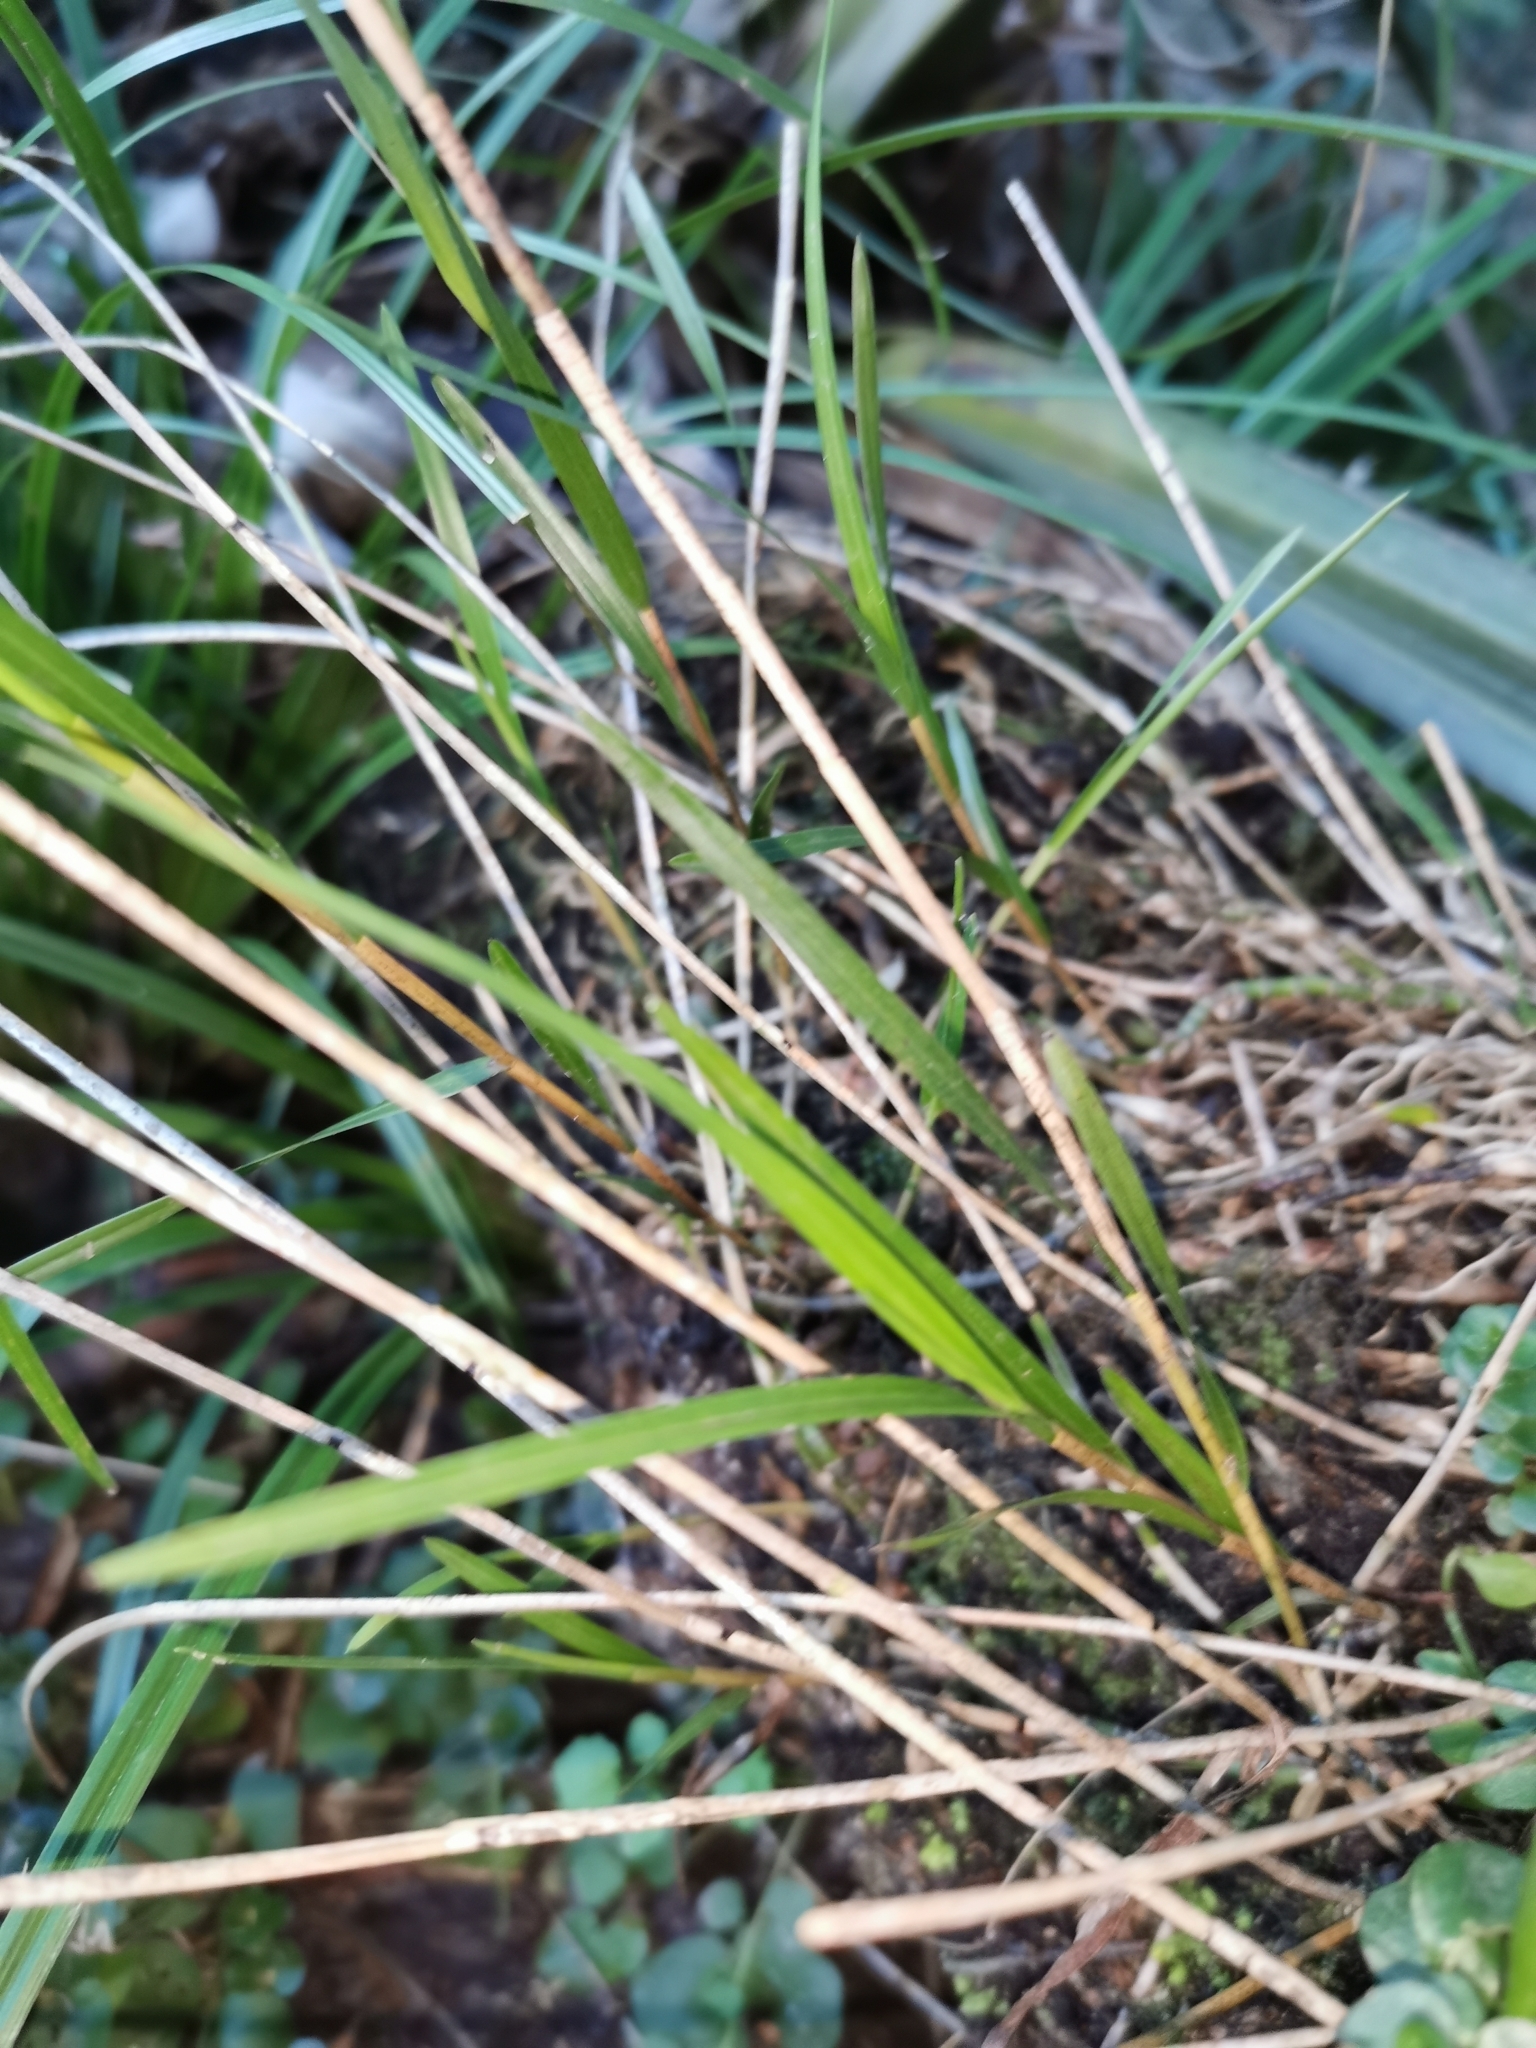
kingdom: Plantae
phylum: Tracheophyta
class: Liliopsida
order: Asparagales
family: Orchidaceae
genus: Earina
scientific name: Earina mucronata
